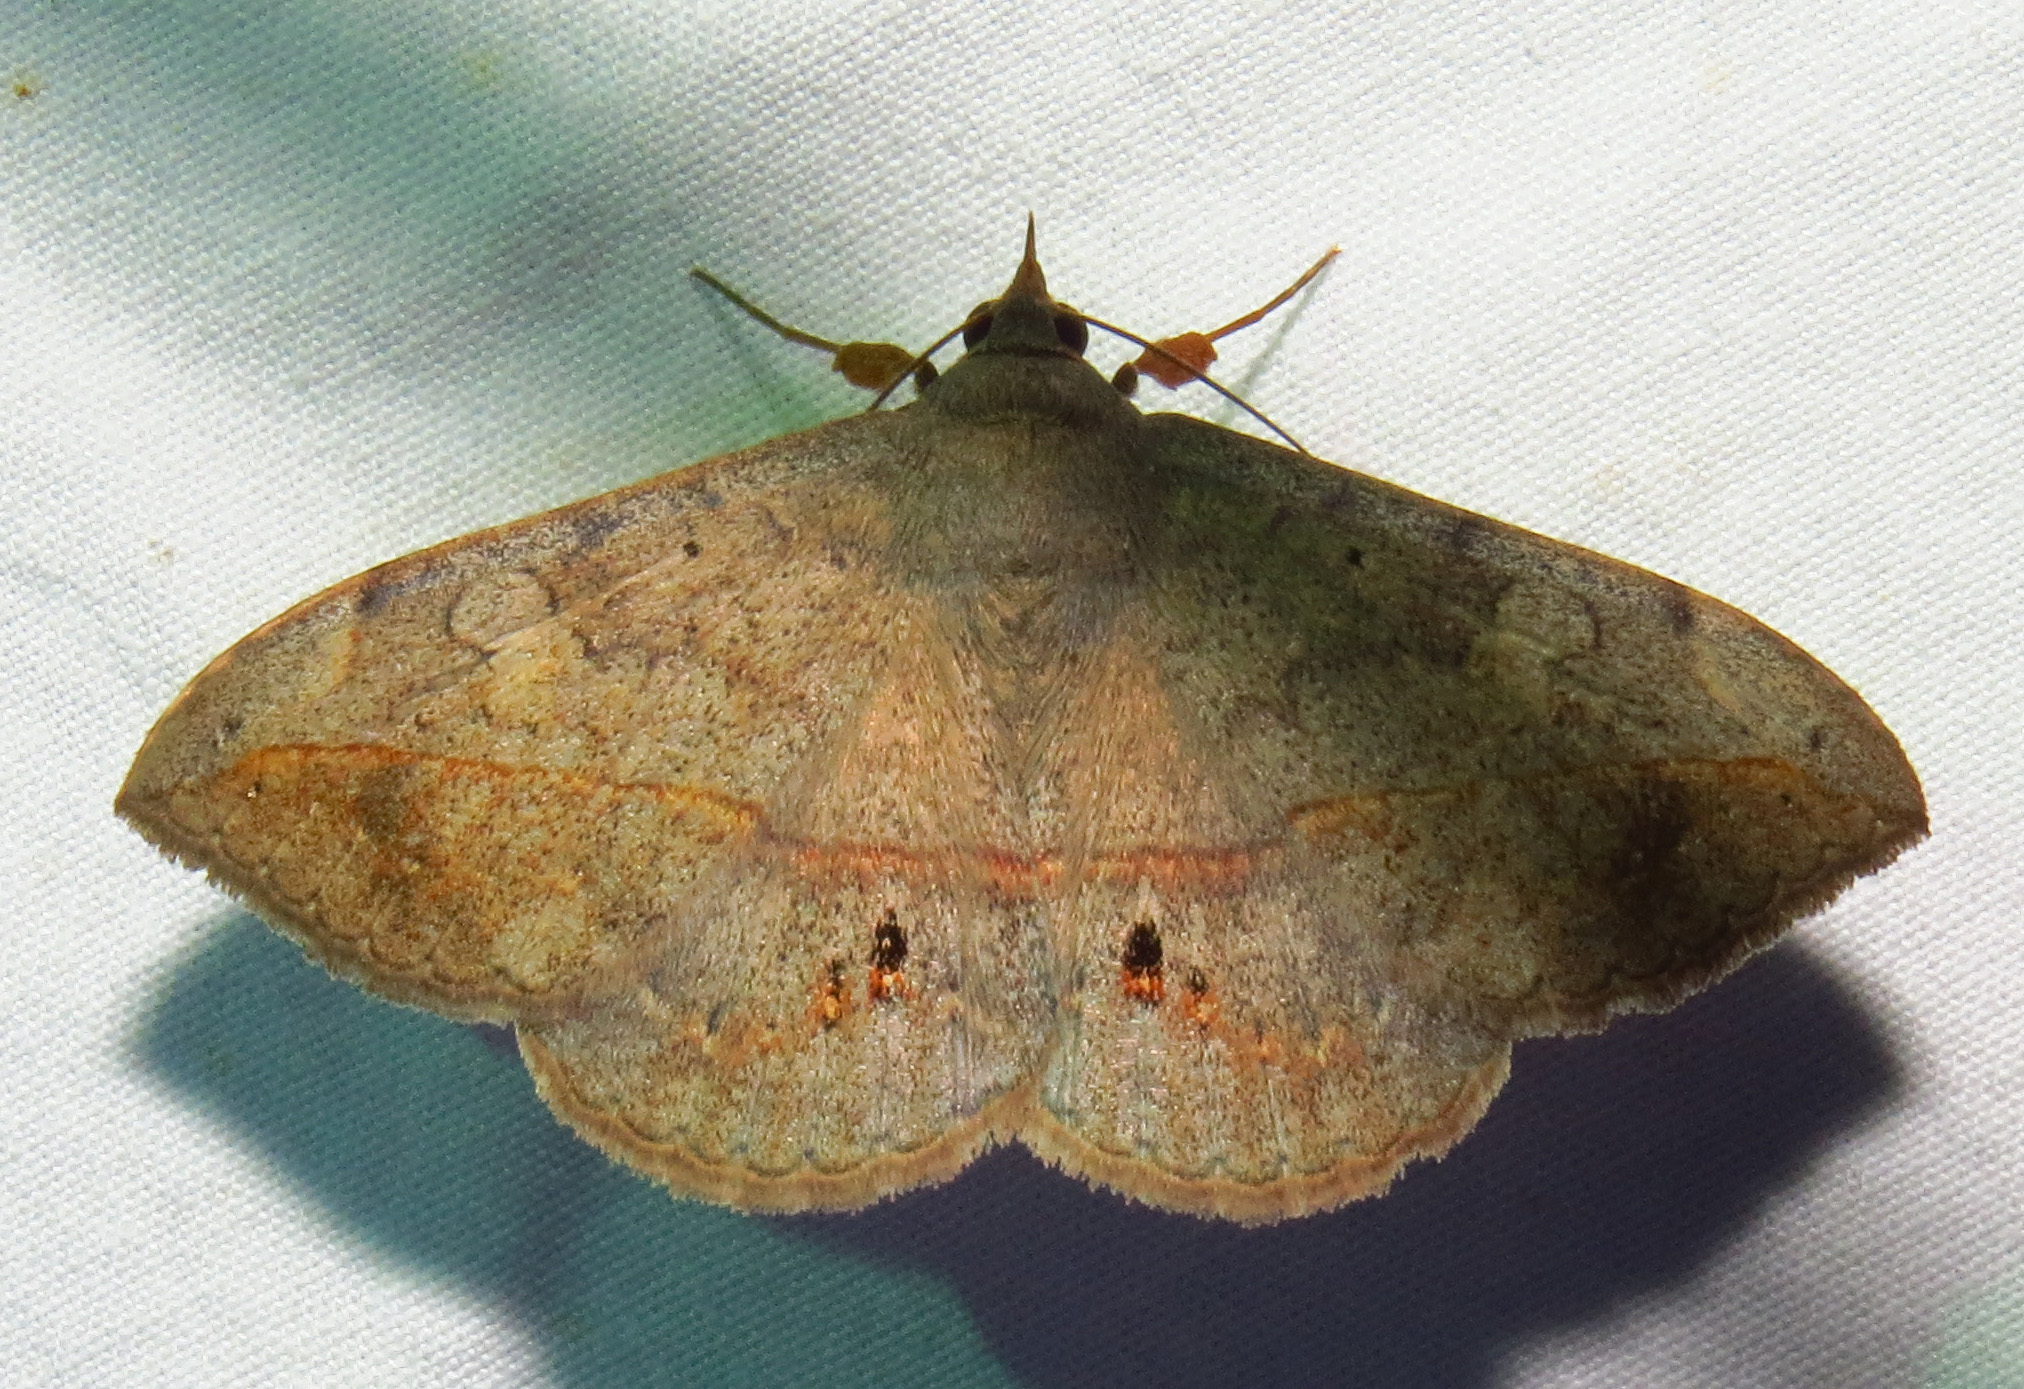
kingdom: Animalia
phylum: Arthropoda
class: Insecta
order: Lepidoptera
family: Erebidae
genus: Anticarsia
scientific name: Anticarsia gemmatalis
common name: Cutworm moth
